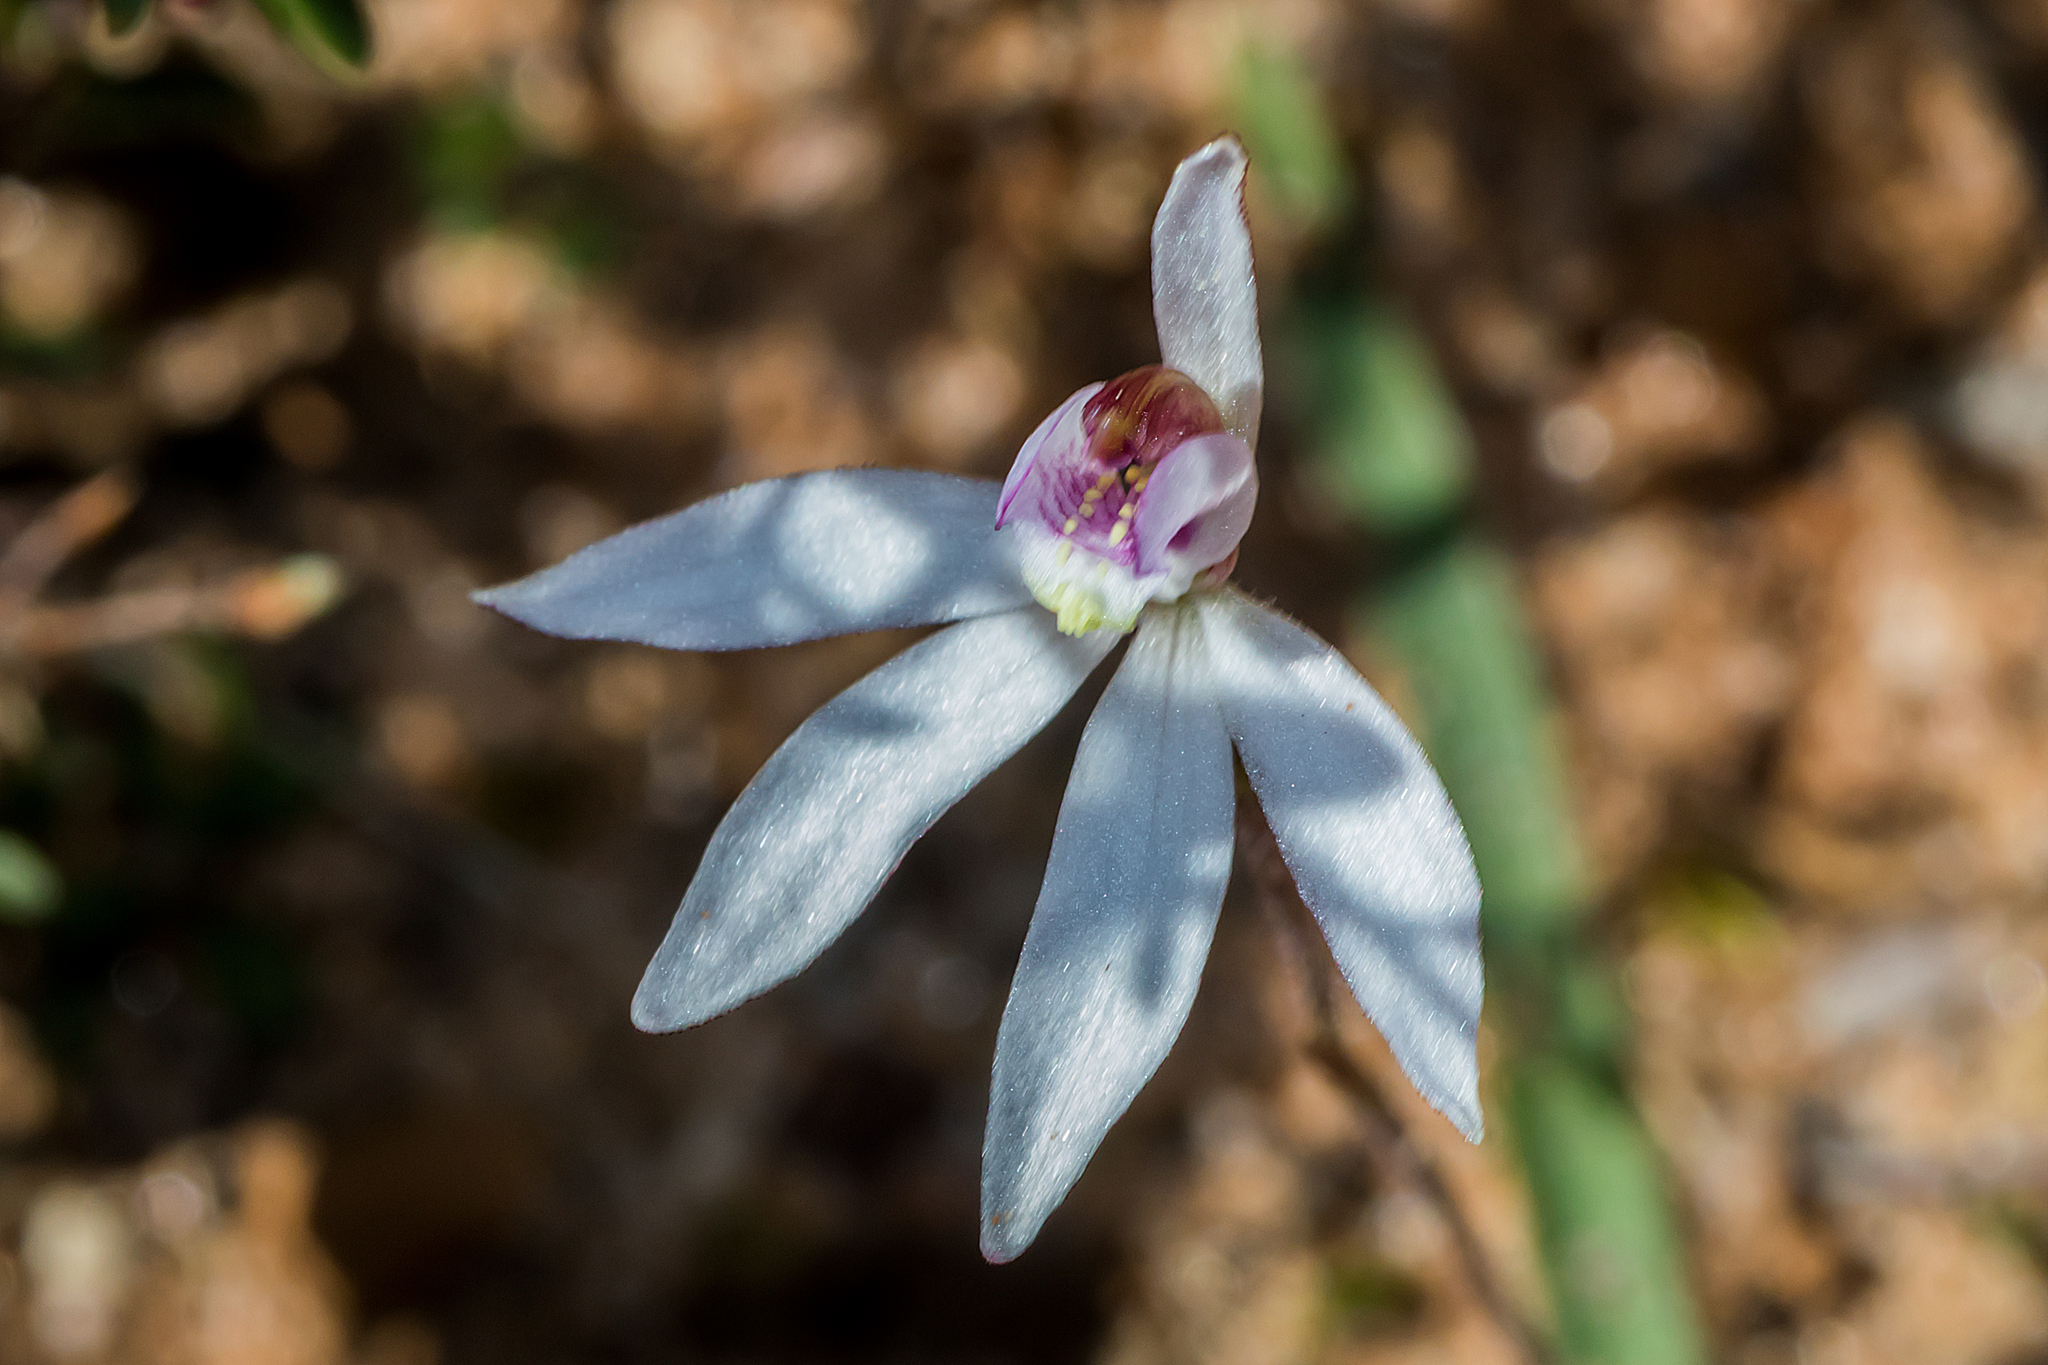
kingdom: Plantae
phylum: Tracheophyta
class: Liliopsida
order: Asparagales
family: Orchidaceae
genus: Caladenia
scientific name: Caladenia fuscata
